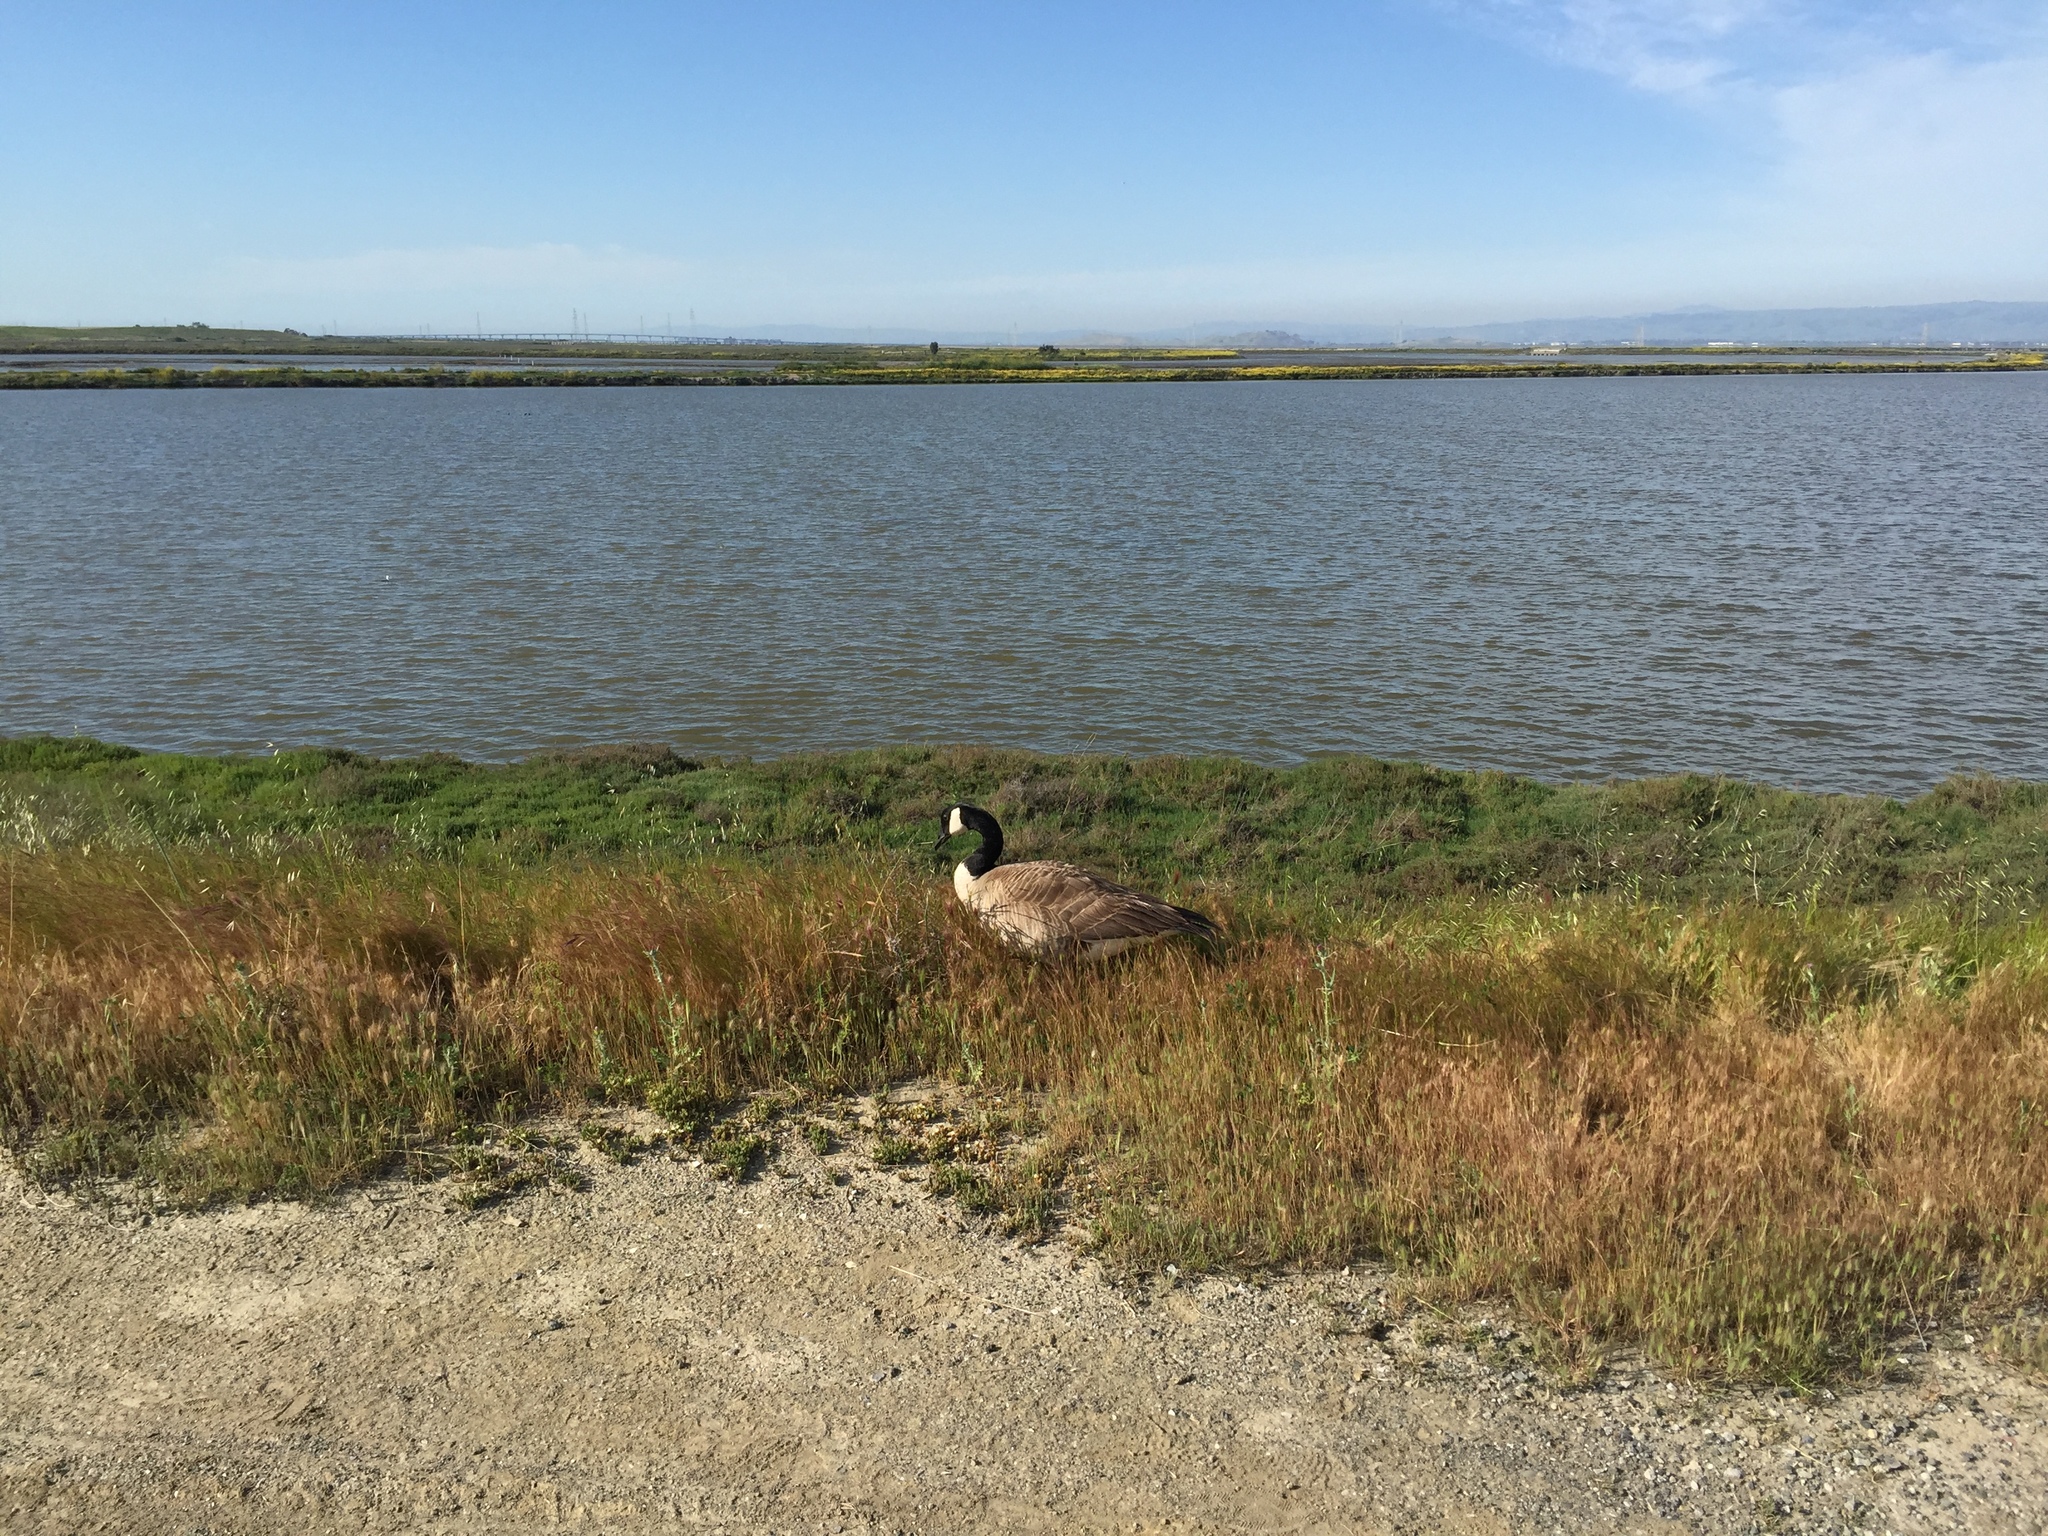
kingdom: Animalia
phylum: Chordata
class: Aves
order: Anseriformes
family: Anatidae
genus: Branta
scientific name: Branta canadensis
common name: Canada goose
